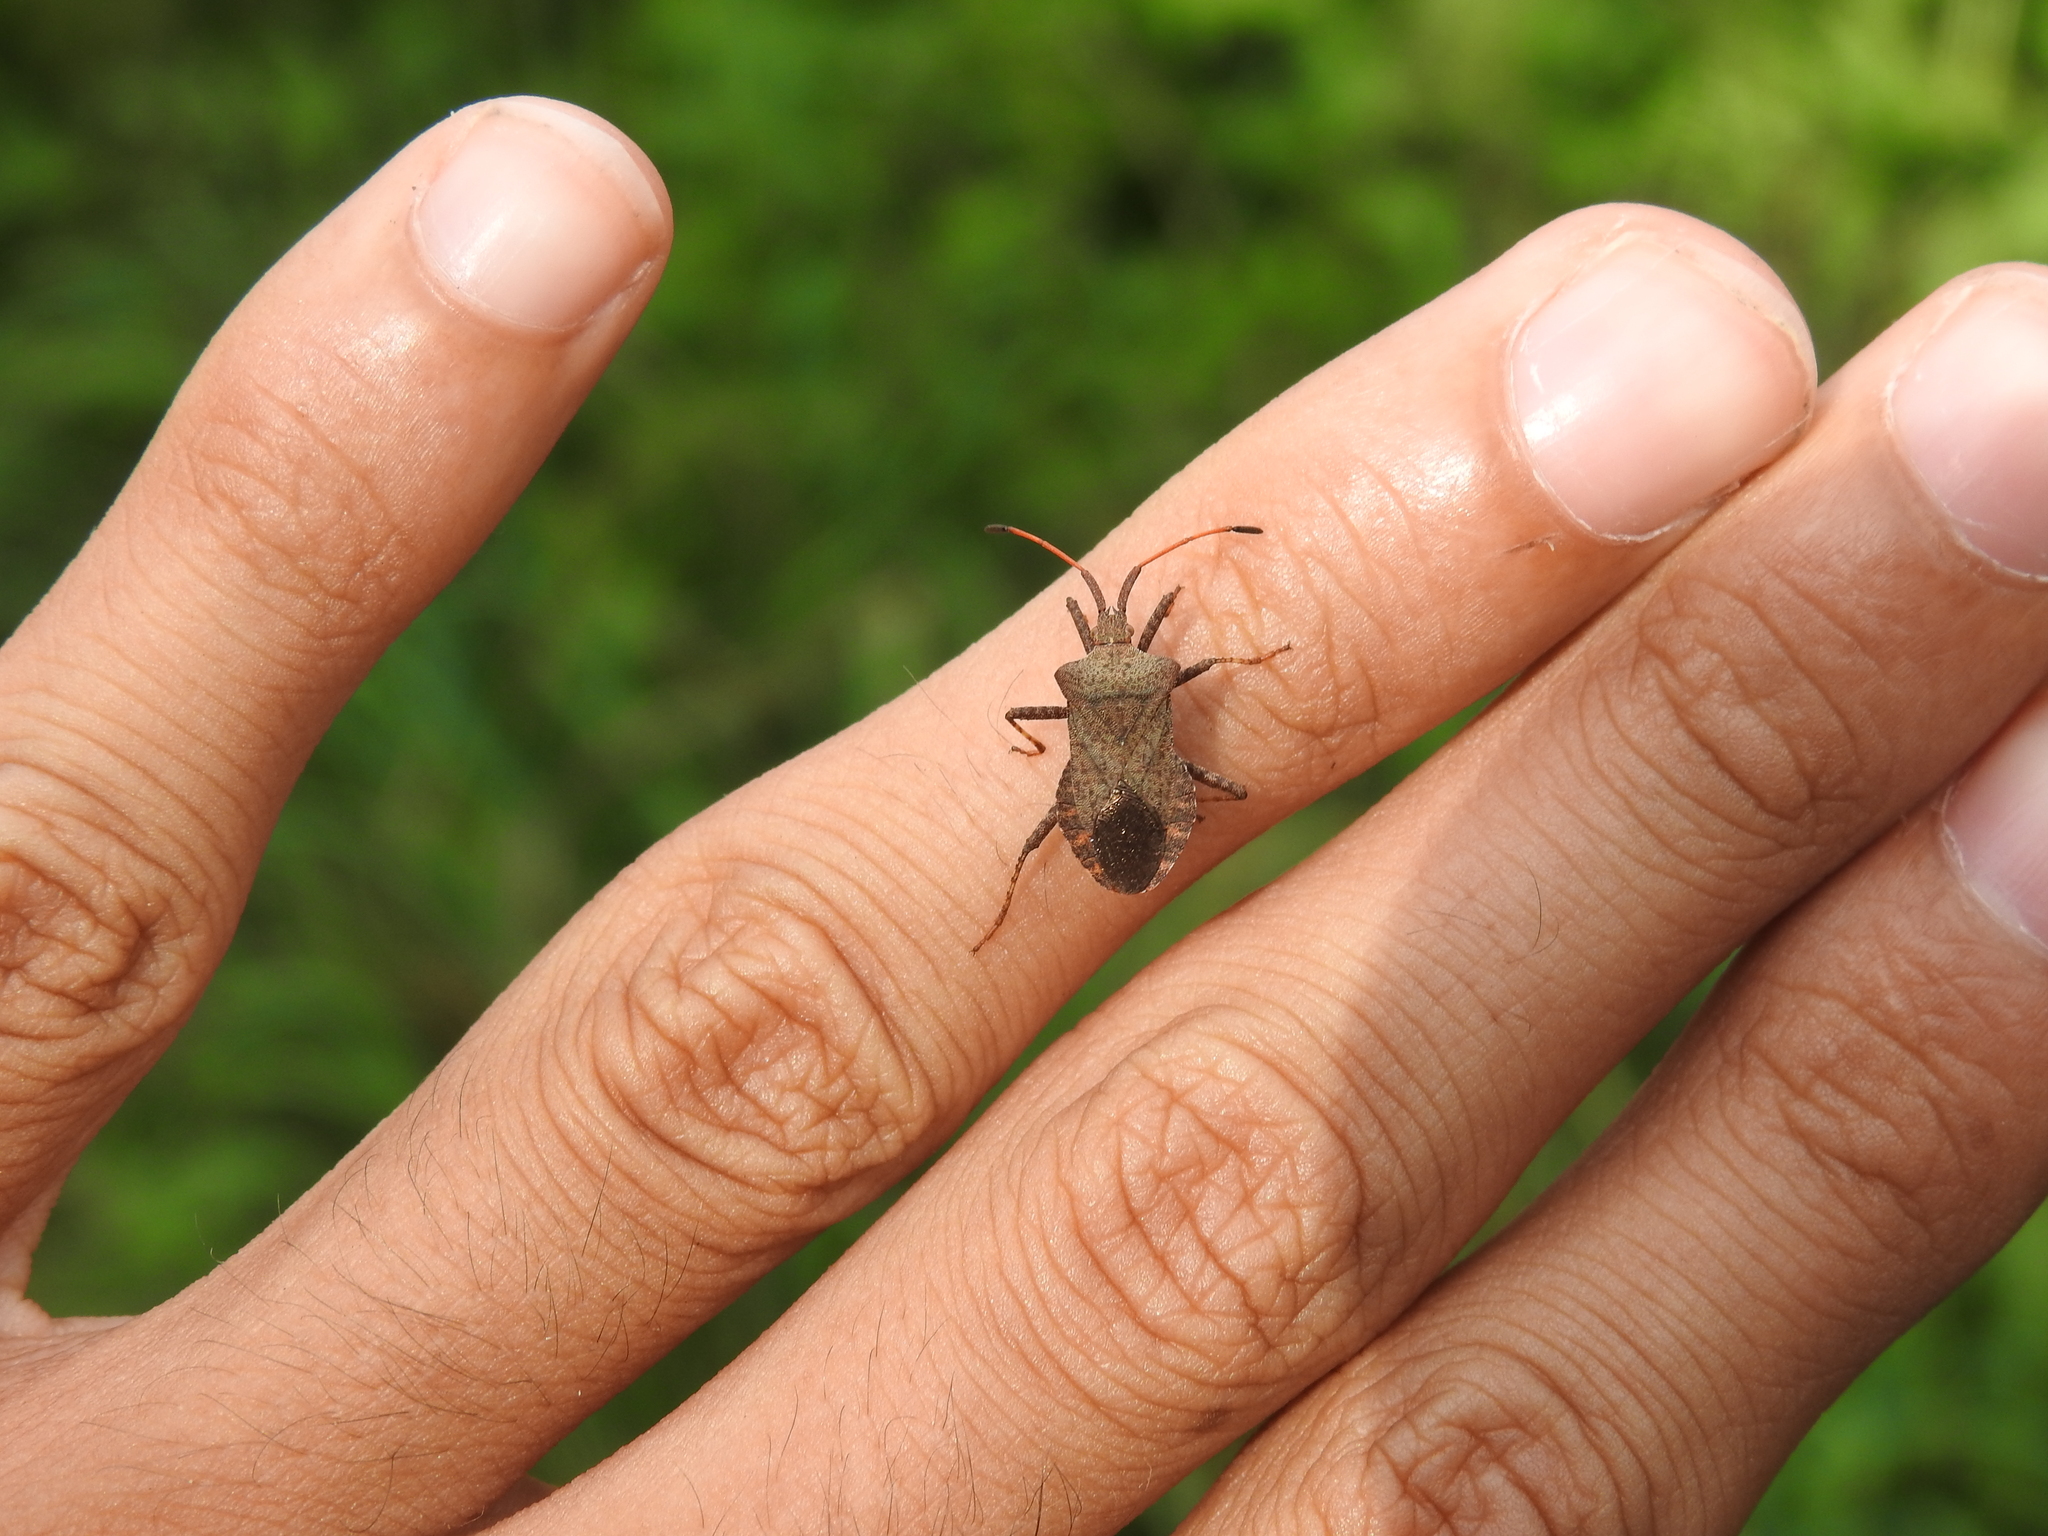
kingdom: Animalia
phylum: Arthropoda
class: Insecta
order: Hemiptera
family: Coreidae
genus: Coreus
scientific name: Coreus marginatus
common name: Dock bug
